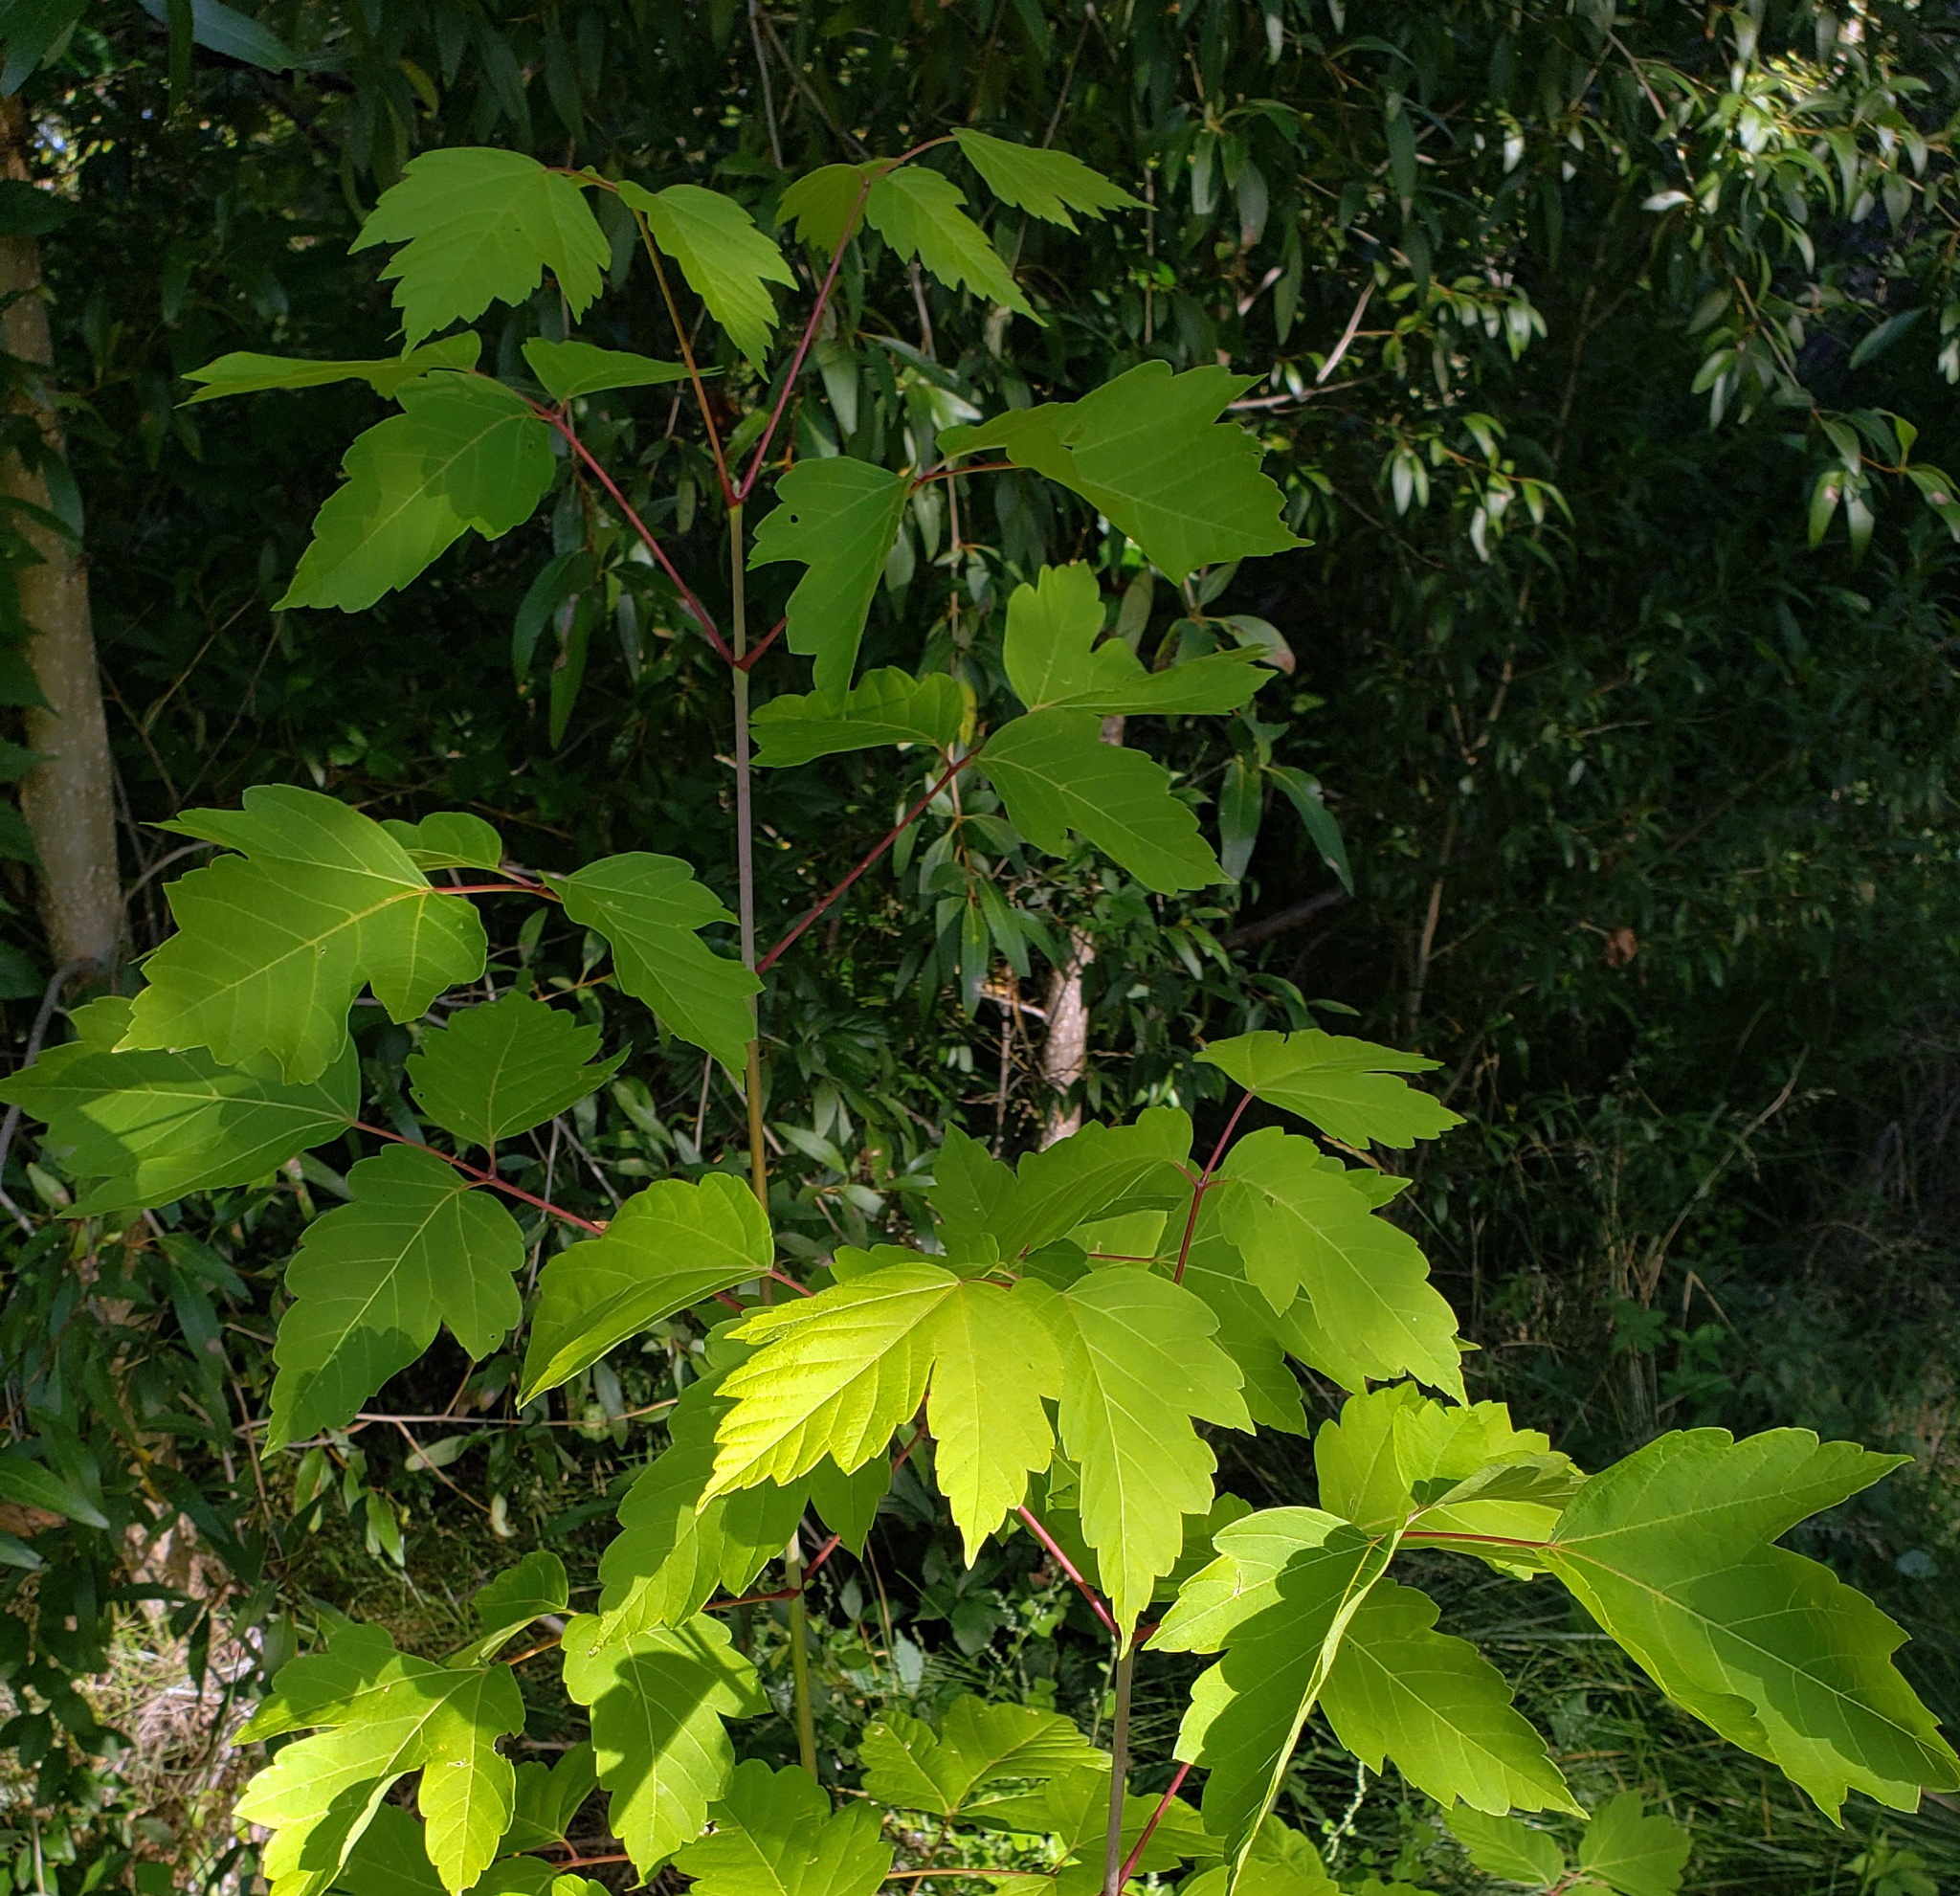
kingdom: Plantae
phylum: Tracheophyta
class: Magnoliopsida
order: Sapindales
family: Sapindaceae
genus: Acer
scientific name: Acer negundo
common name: Ashleaf maple
